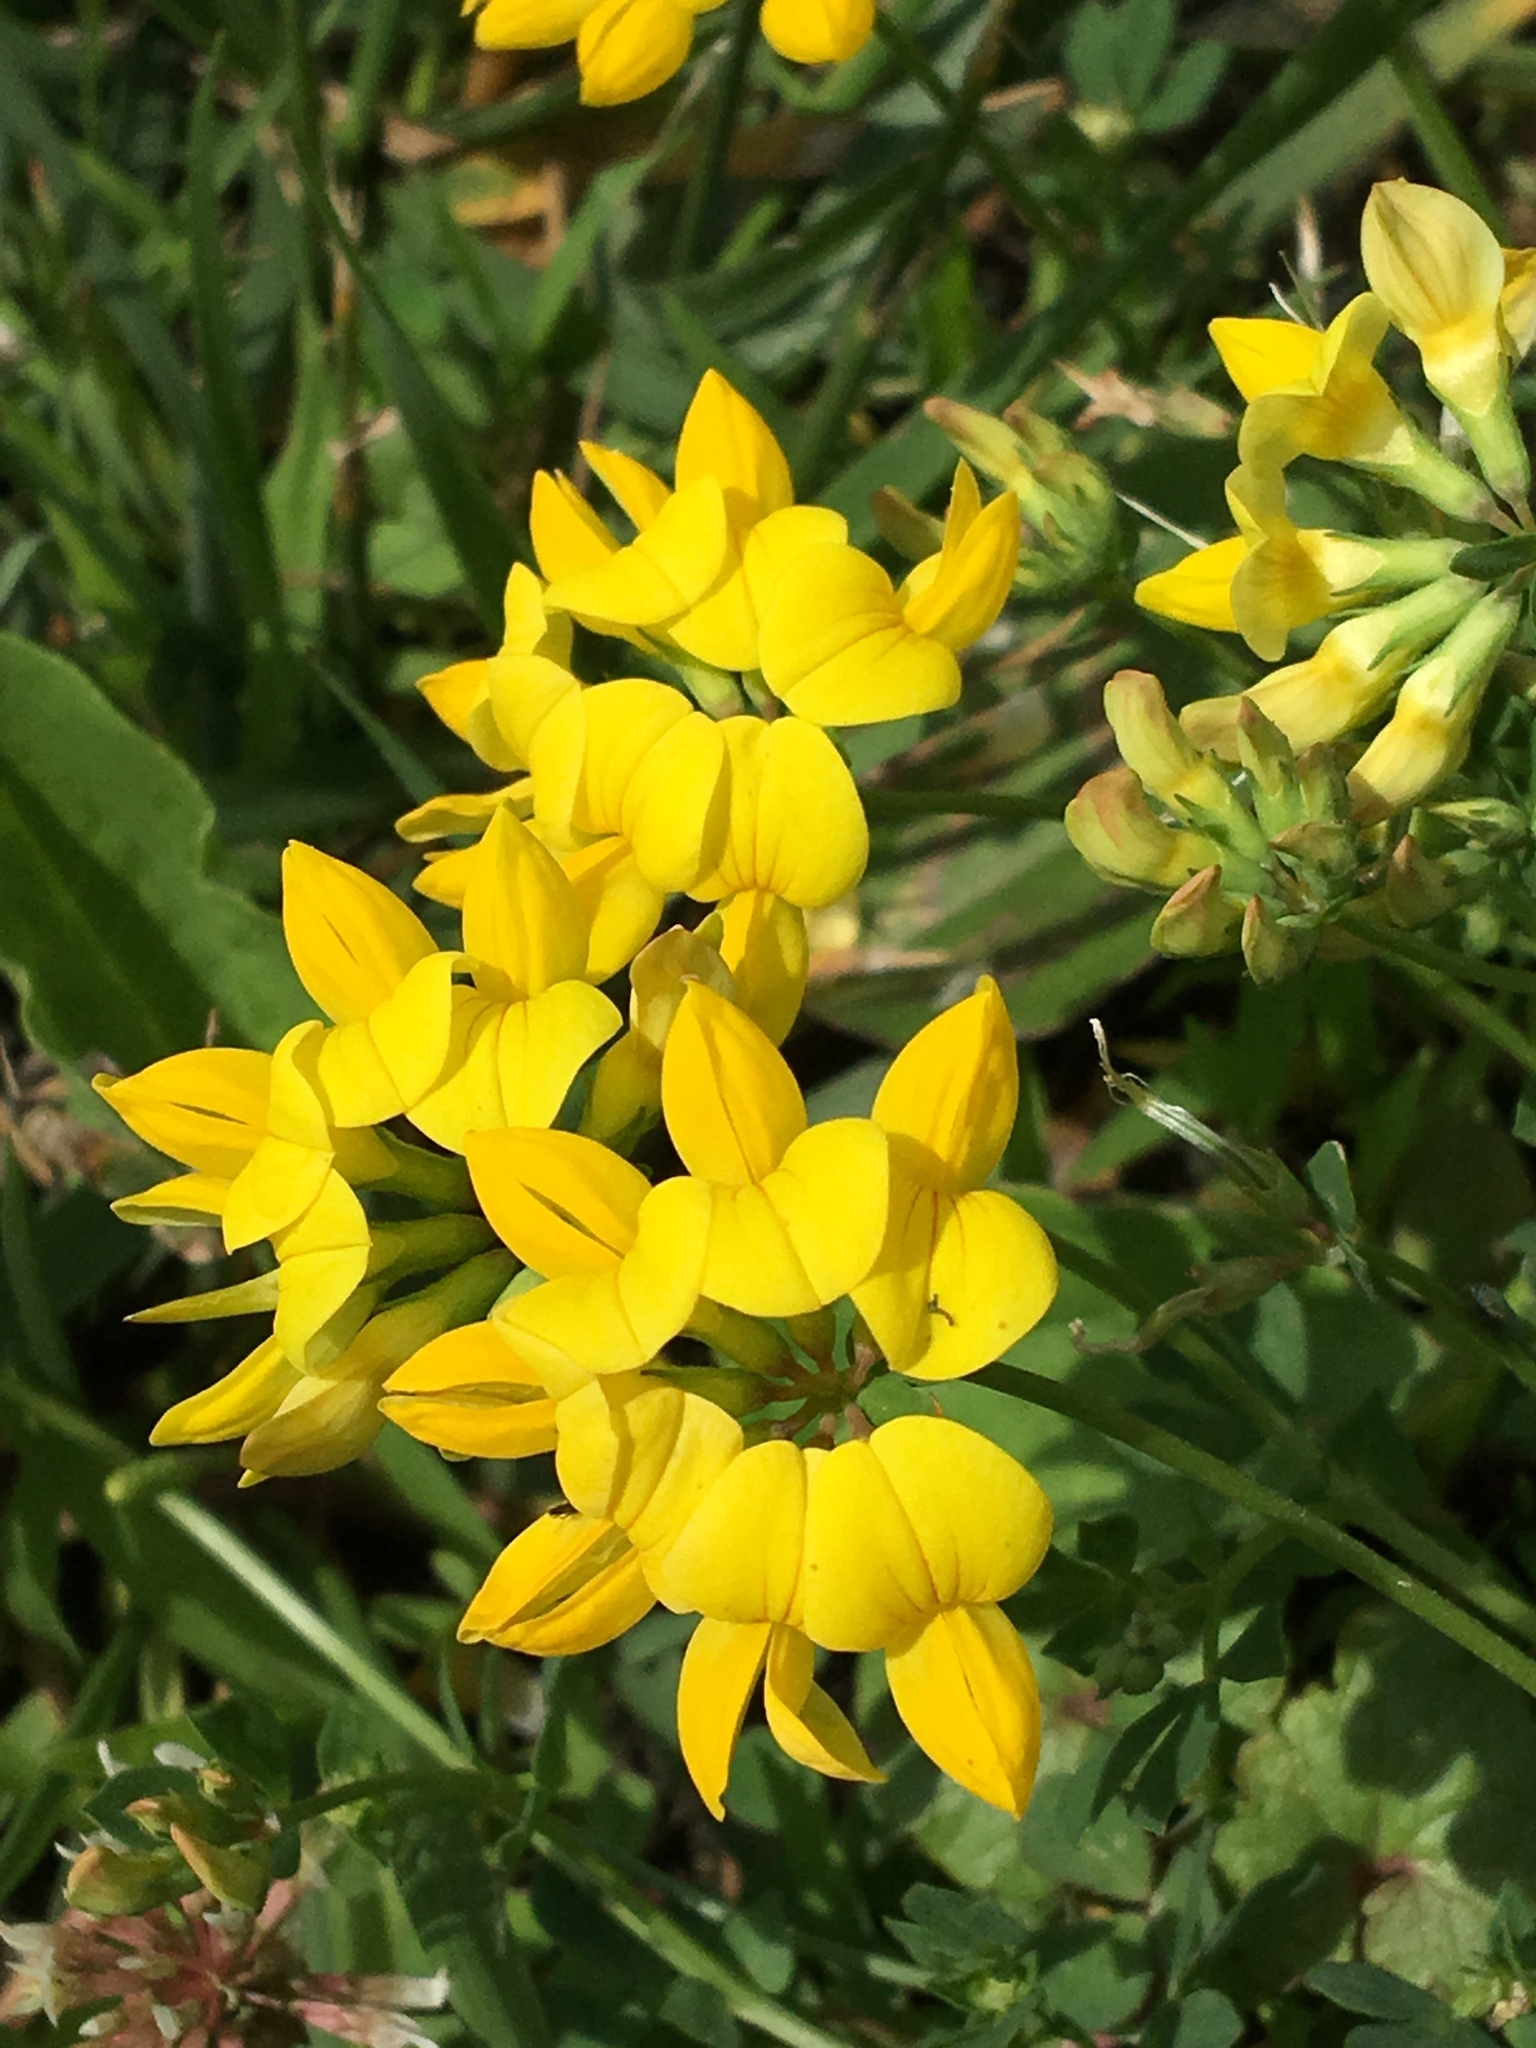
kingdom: Plantae
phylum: Tracheophyta
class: Magnoliopsida
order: Fabales
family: Fabaceae
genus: Lotus
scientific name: Lotus corniculatus
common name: Common bird's-foot-trefoil
